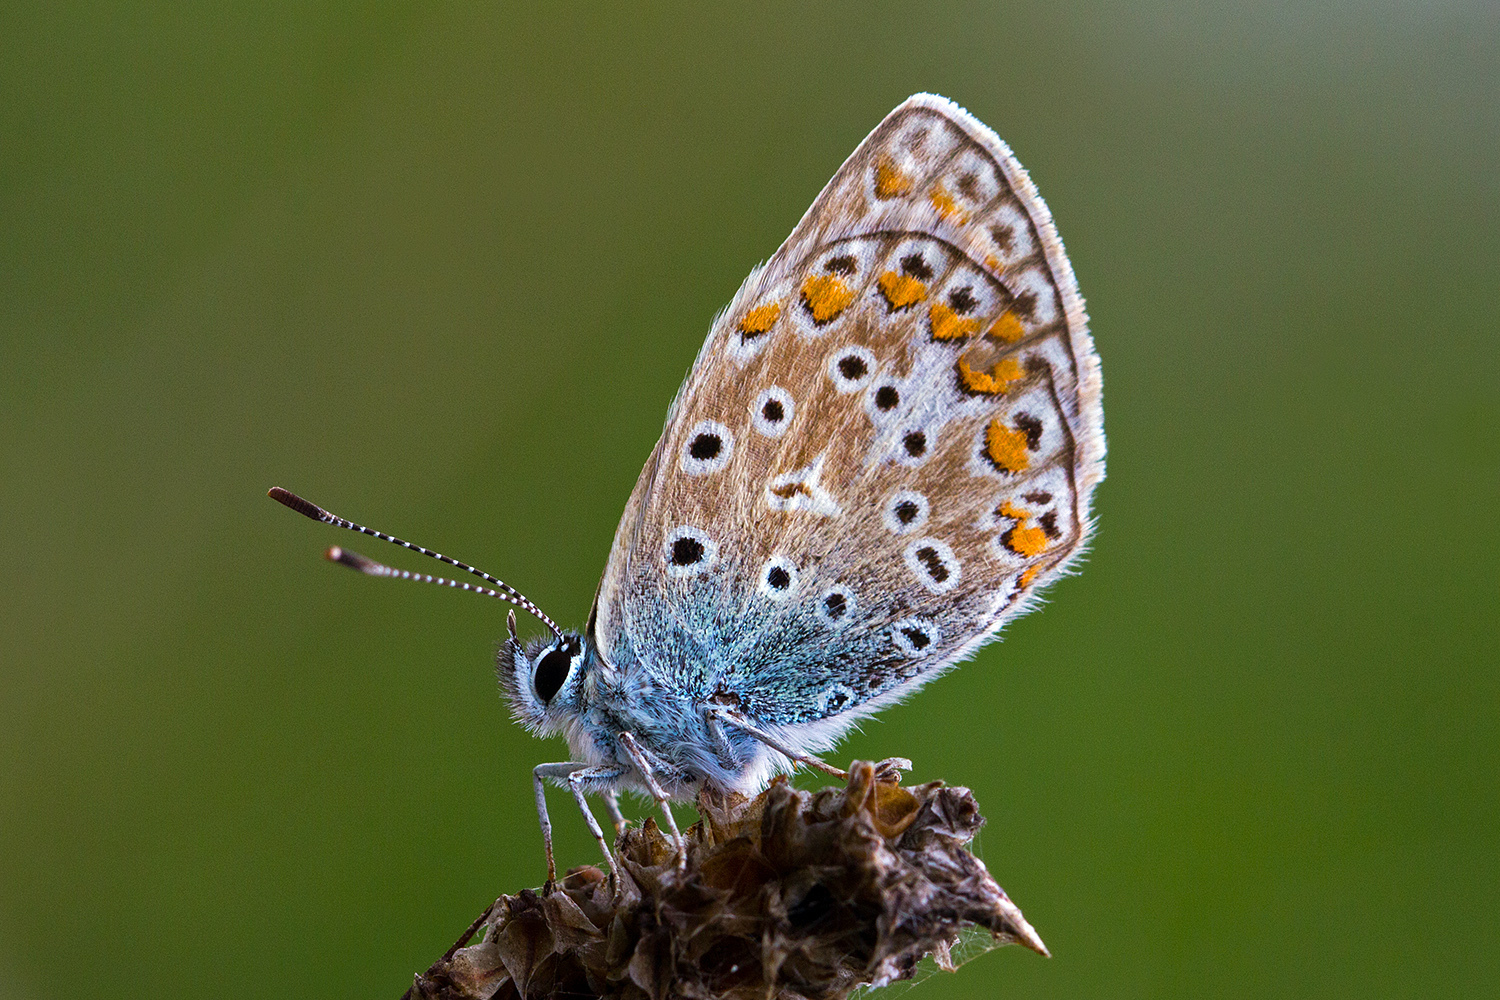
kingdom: Animalia
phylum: Arthropoda
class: Insecta
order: Lepidoptera
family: Lycaenidae
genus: Polyommatus
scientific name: Polyommatus icarus
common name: Common blue
